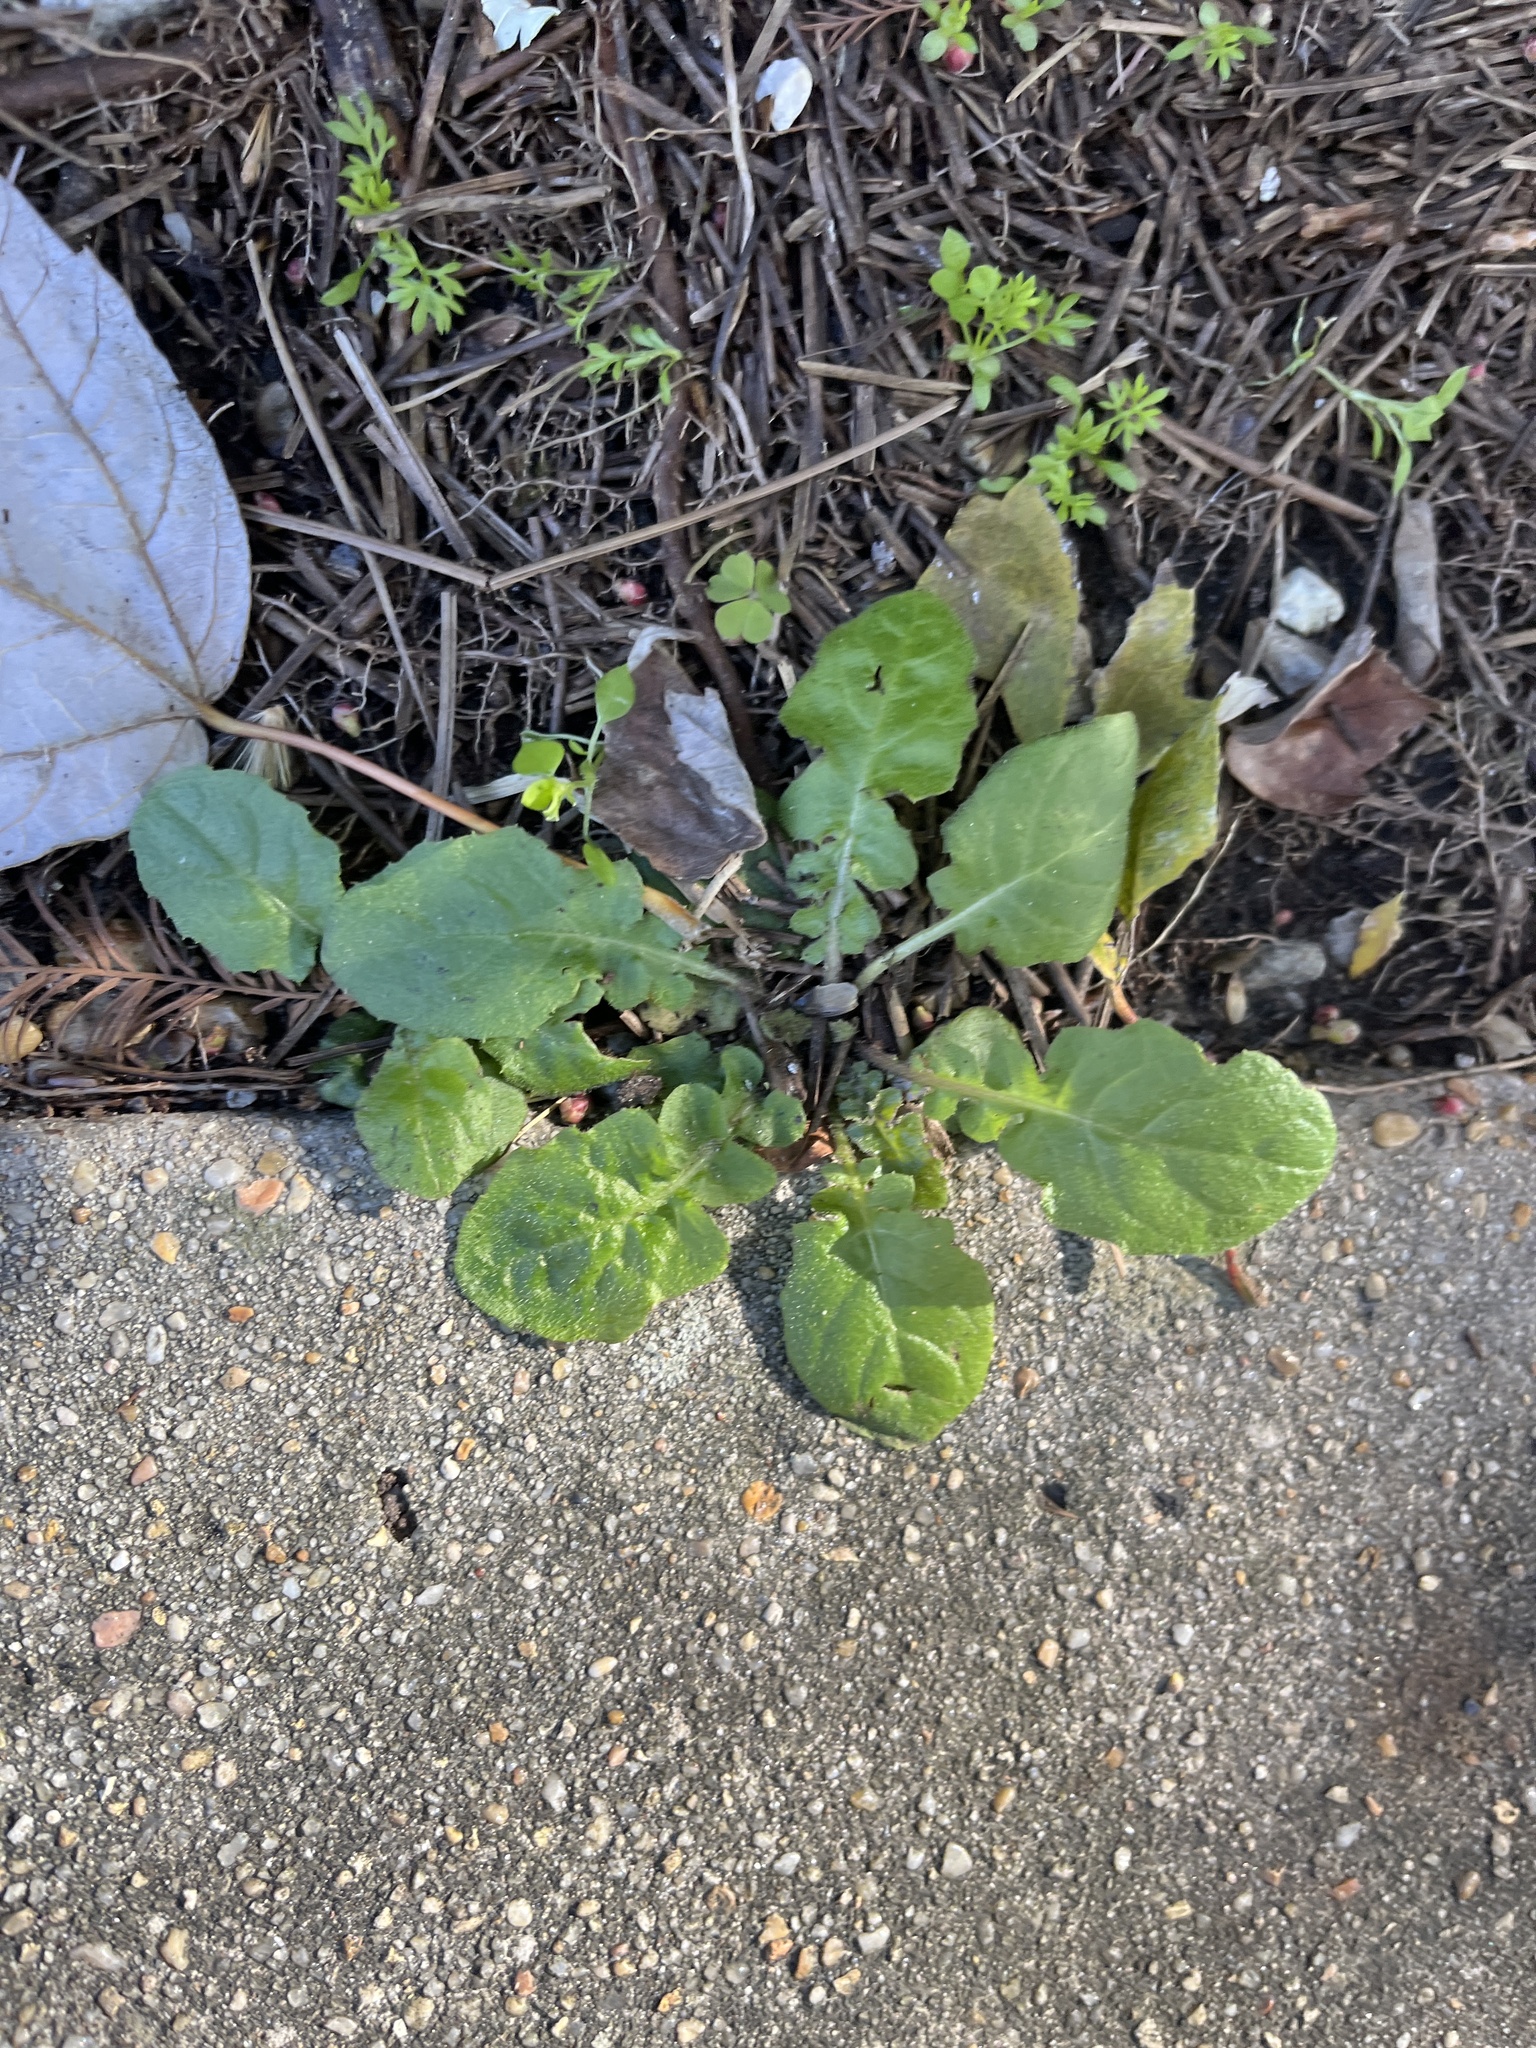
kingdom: Plantae
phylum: Tracheophyta
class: Magnoliopsida
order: Asterales
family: Asteraceae
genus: Youngia
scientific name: Youngia japonica
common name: Oriental false hawksbeard
